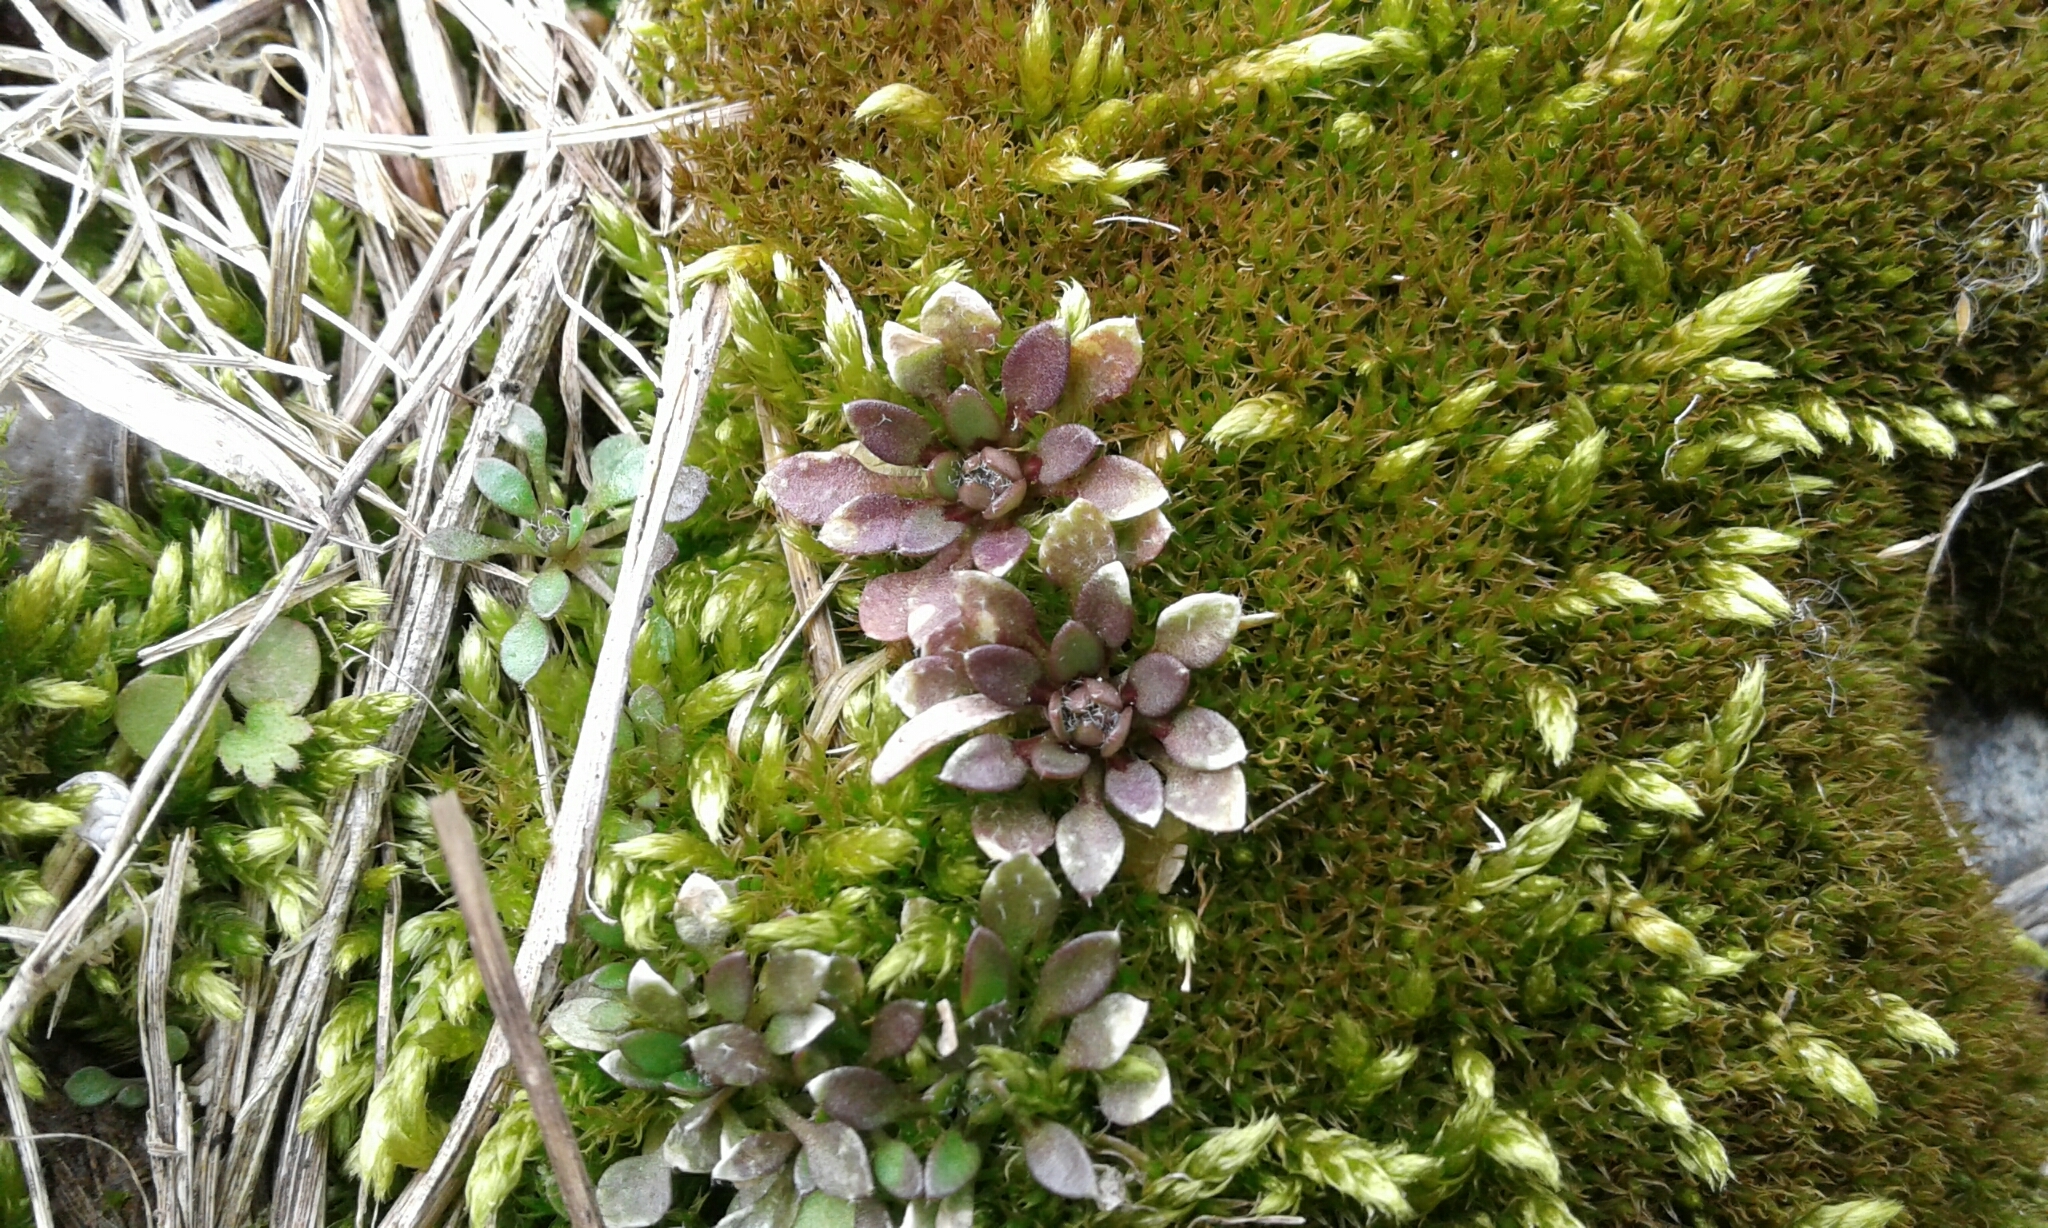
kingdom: Plantae
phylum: Tracheophyta
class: Magnoliopsida
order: Brassicales
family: Brassicaceae
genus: Draba
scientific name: Draba verna
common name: Spring draba
